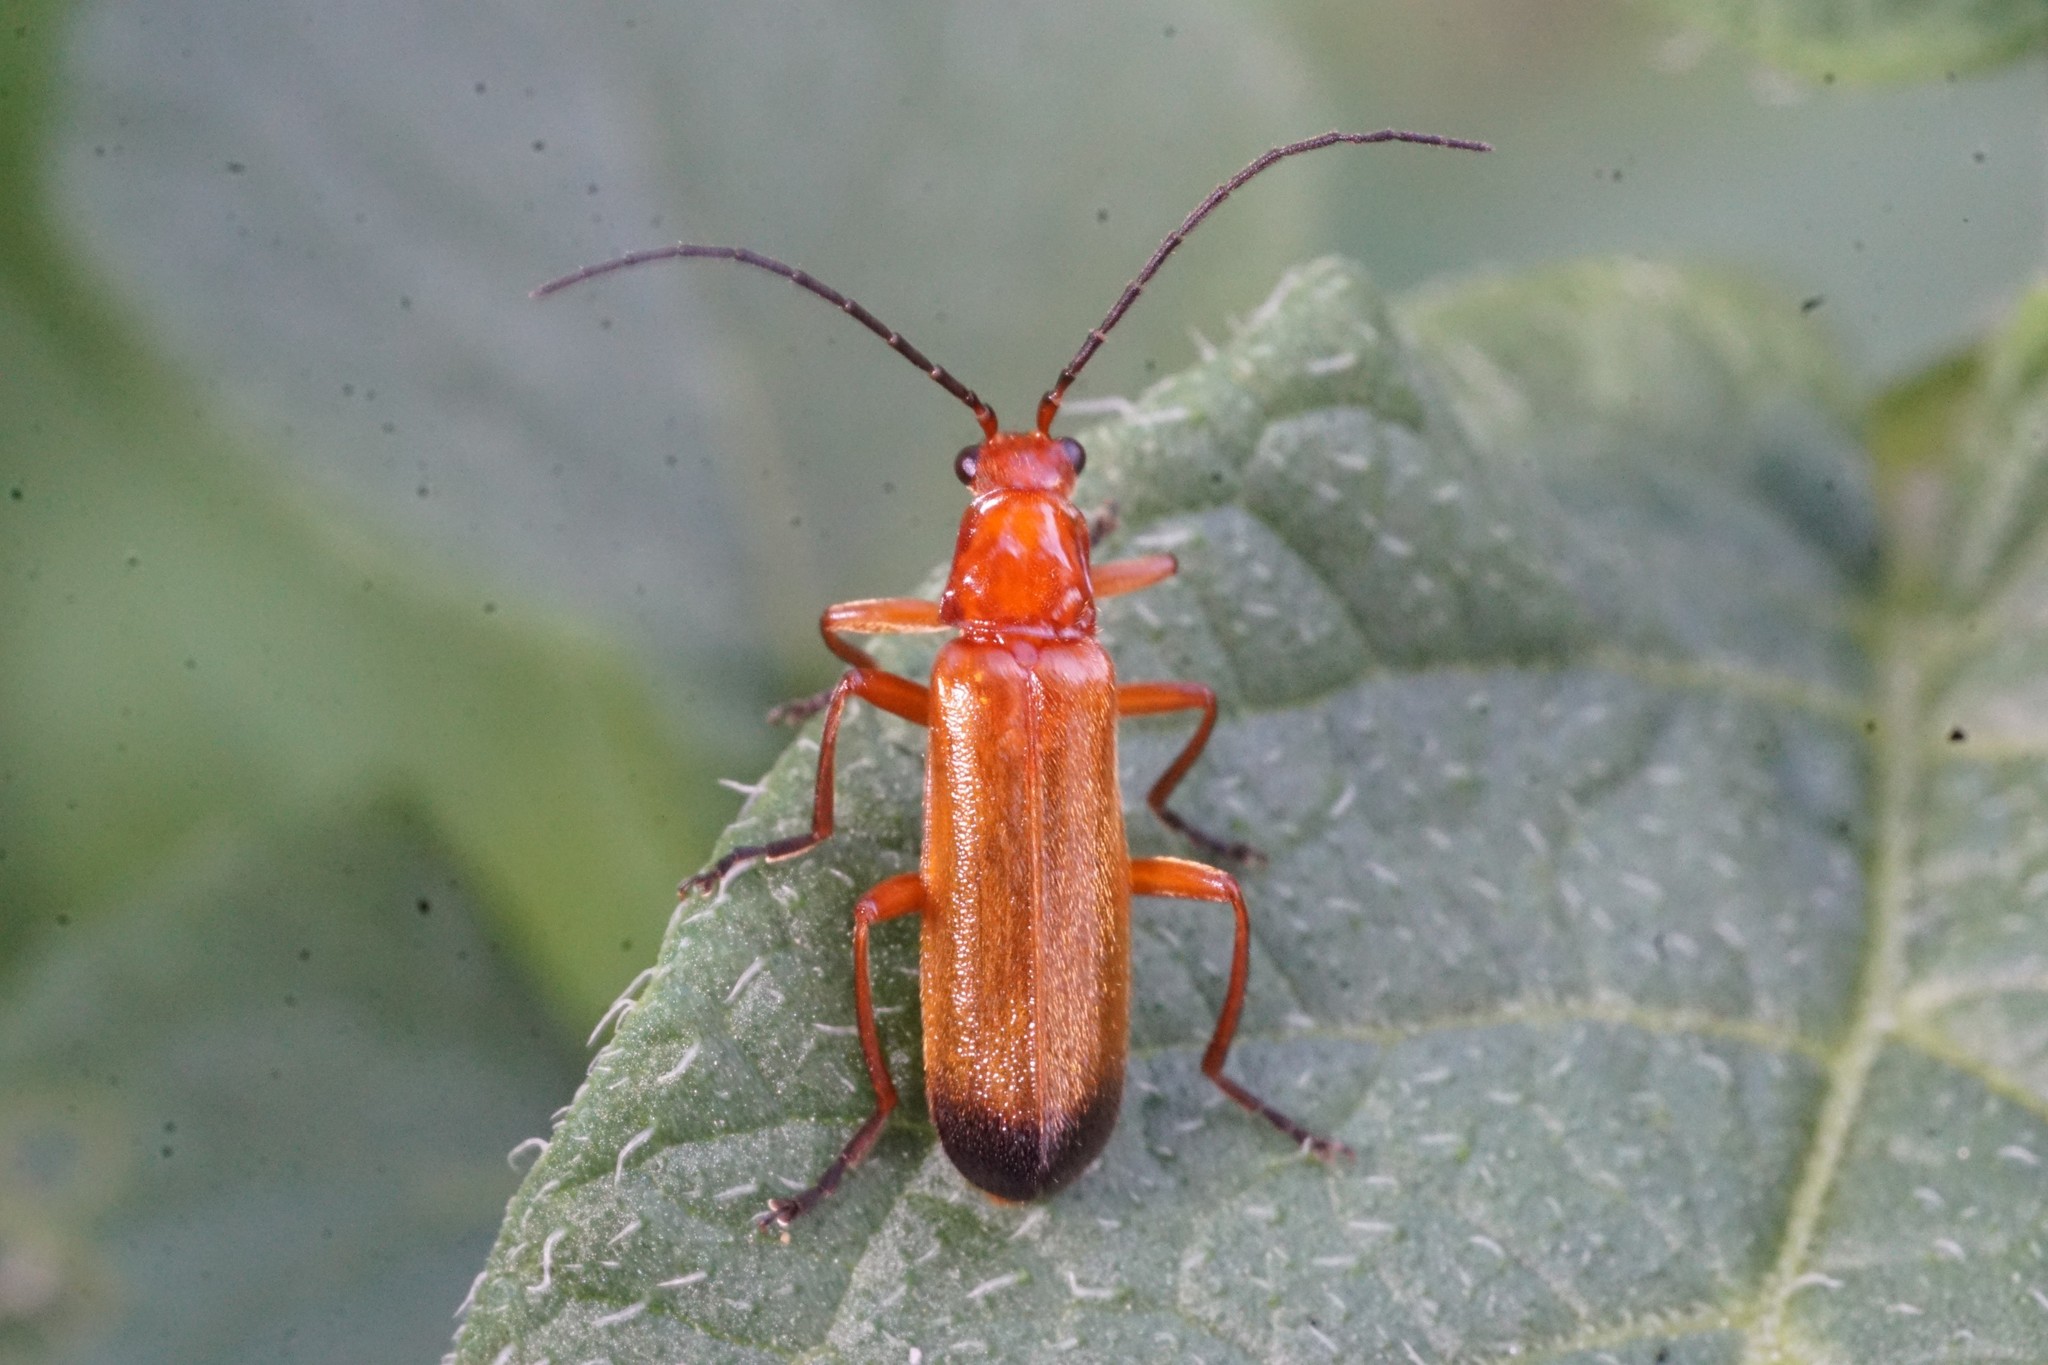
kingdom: Animalia
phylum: Arthropoda
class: Insecta
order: Coleoptera
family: Cantharidae
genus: Rhagonycha
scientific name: Rhagonycha fulva
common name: Common red soldier beetle
